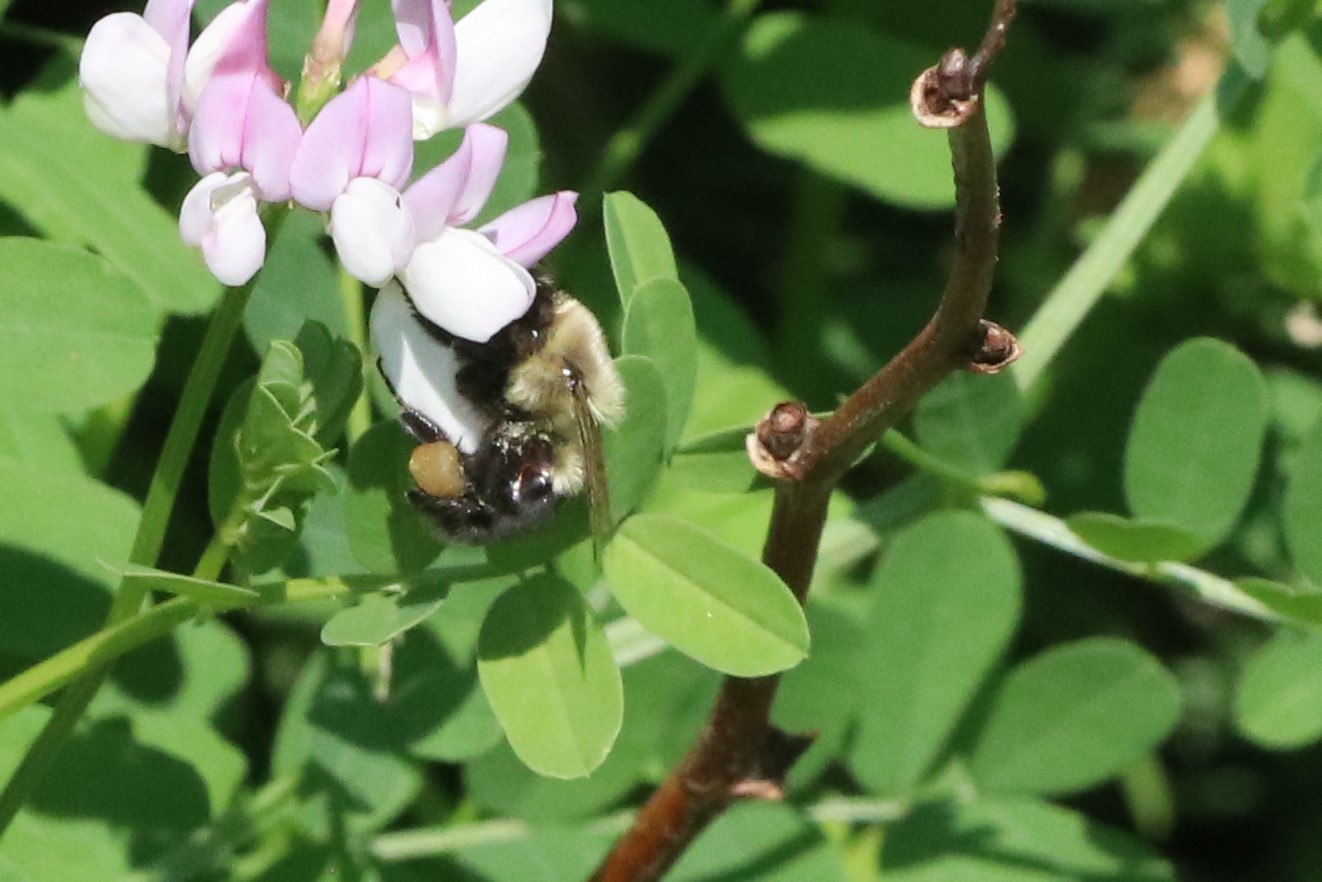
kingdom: Animalia
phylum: Arthropoda
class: Insecta
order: Hymenoptera
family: Apidae
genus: Bombus
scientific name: Bombus impatiens
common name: Common eastern bumble bee
